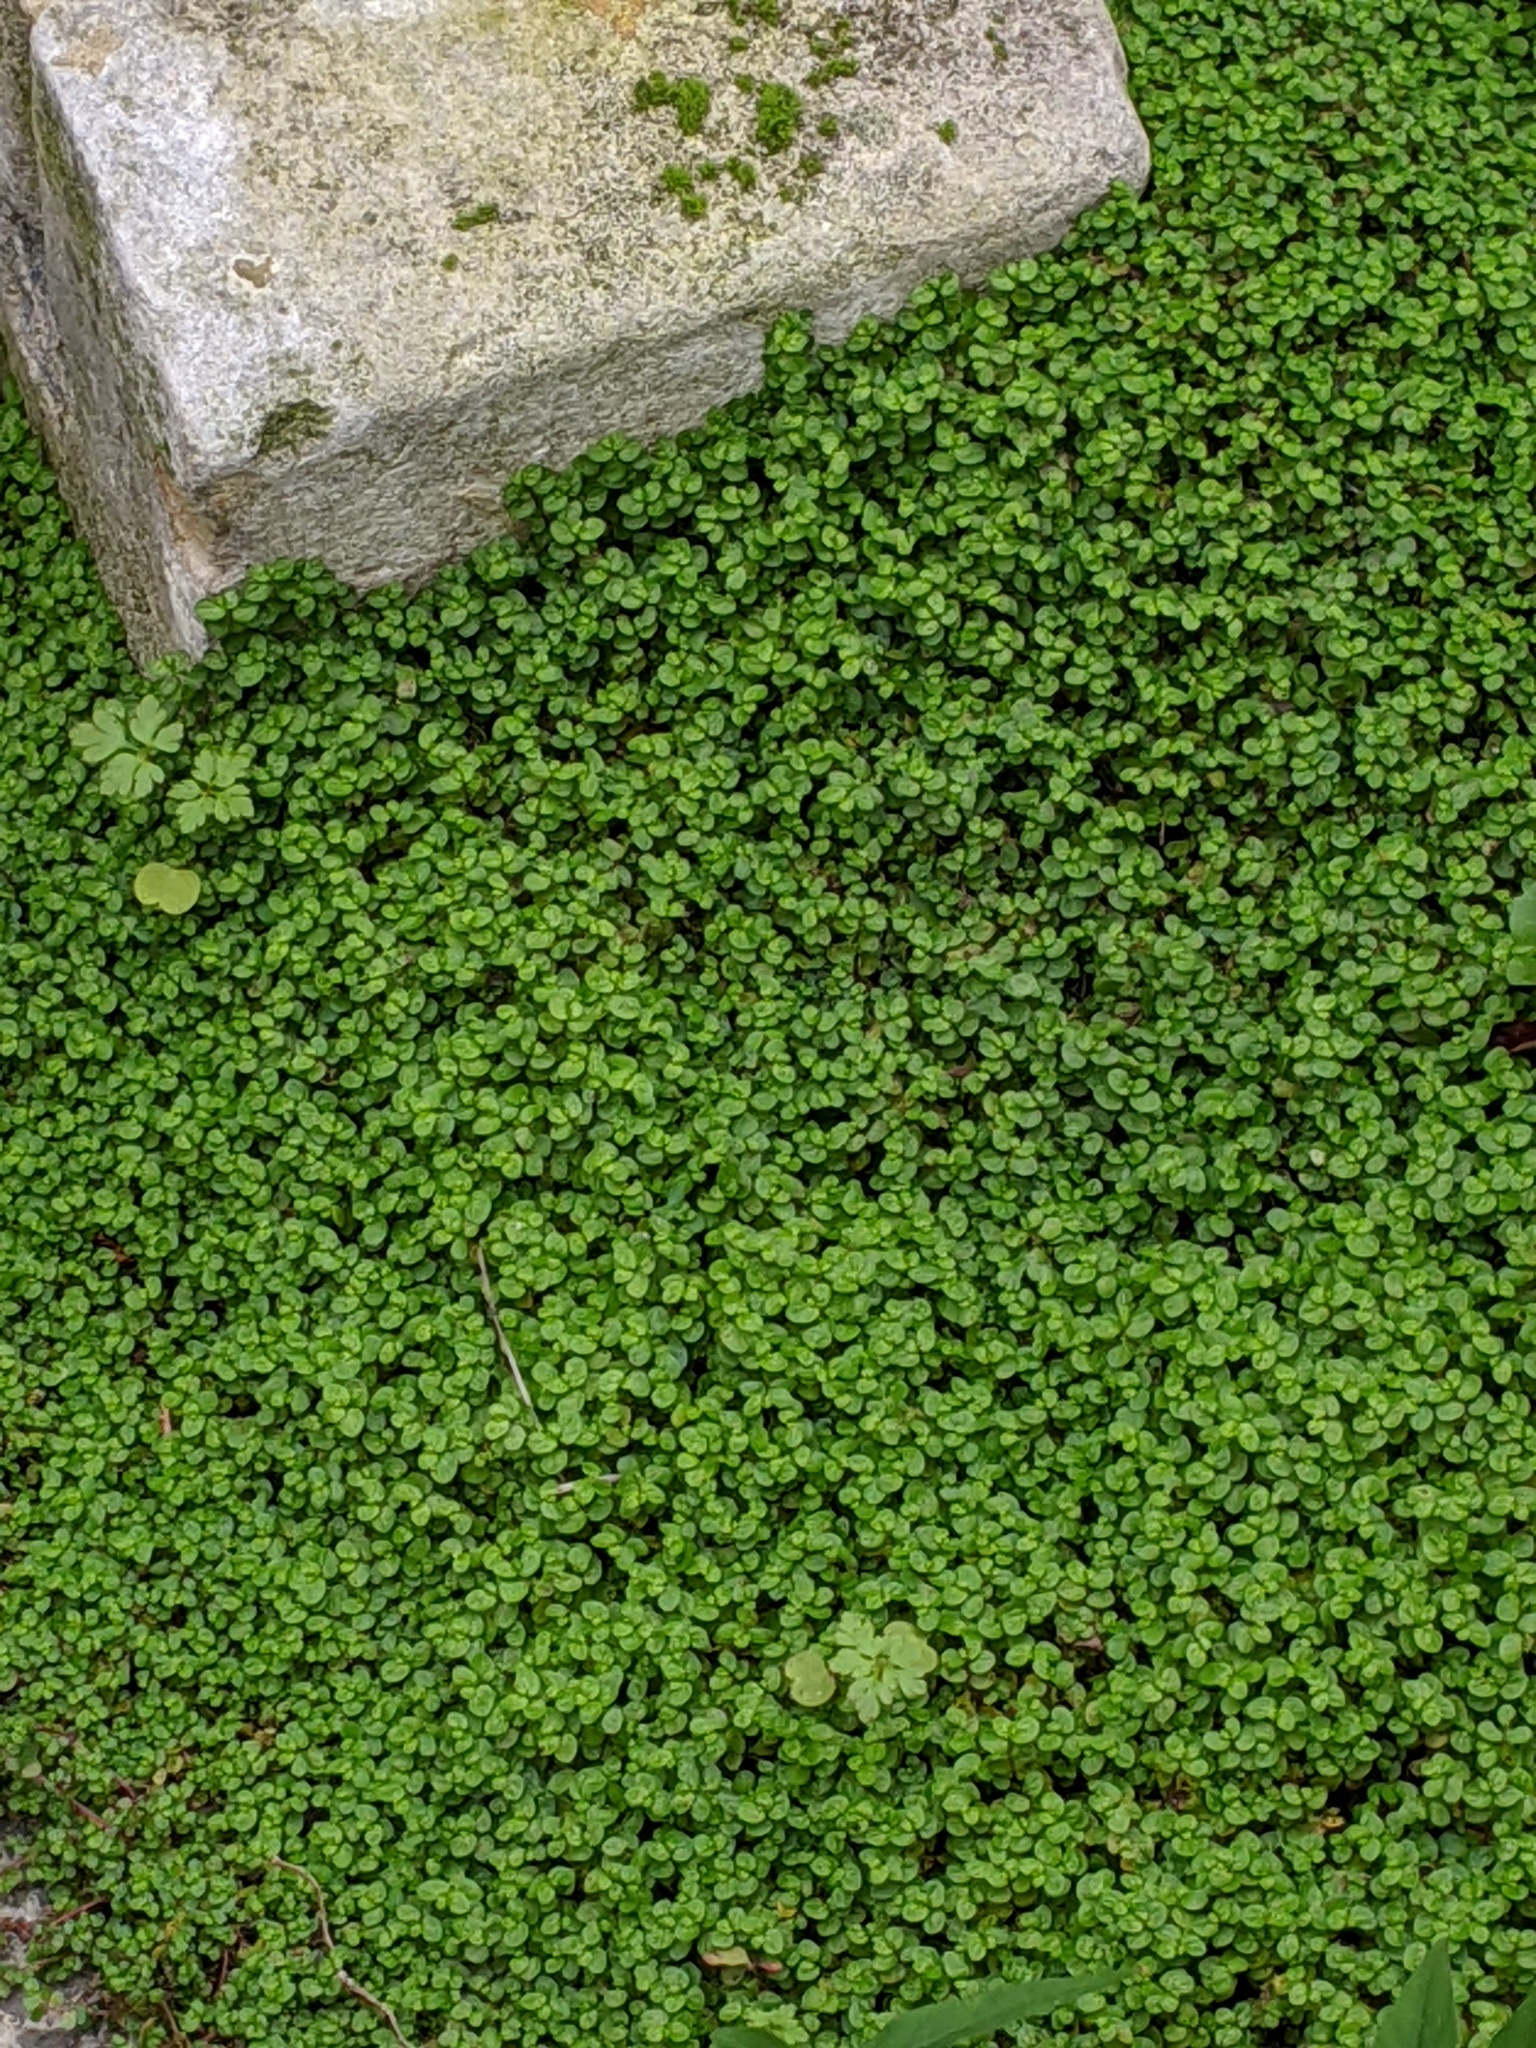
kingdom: Plantae
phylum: Tracheophyta
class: Magnoliopsida
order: Rosales
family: Urticaceae
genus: Soleirolia
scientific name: Soleirolia soleirolii
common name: Mind-your-own-business
